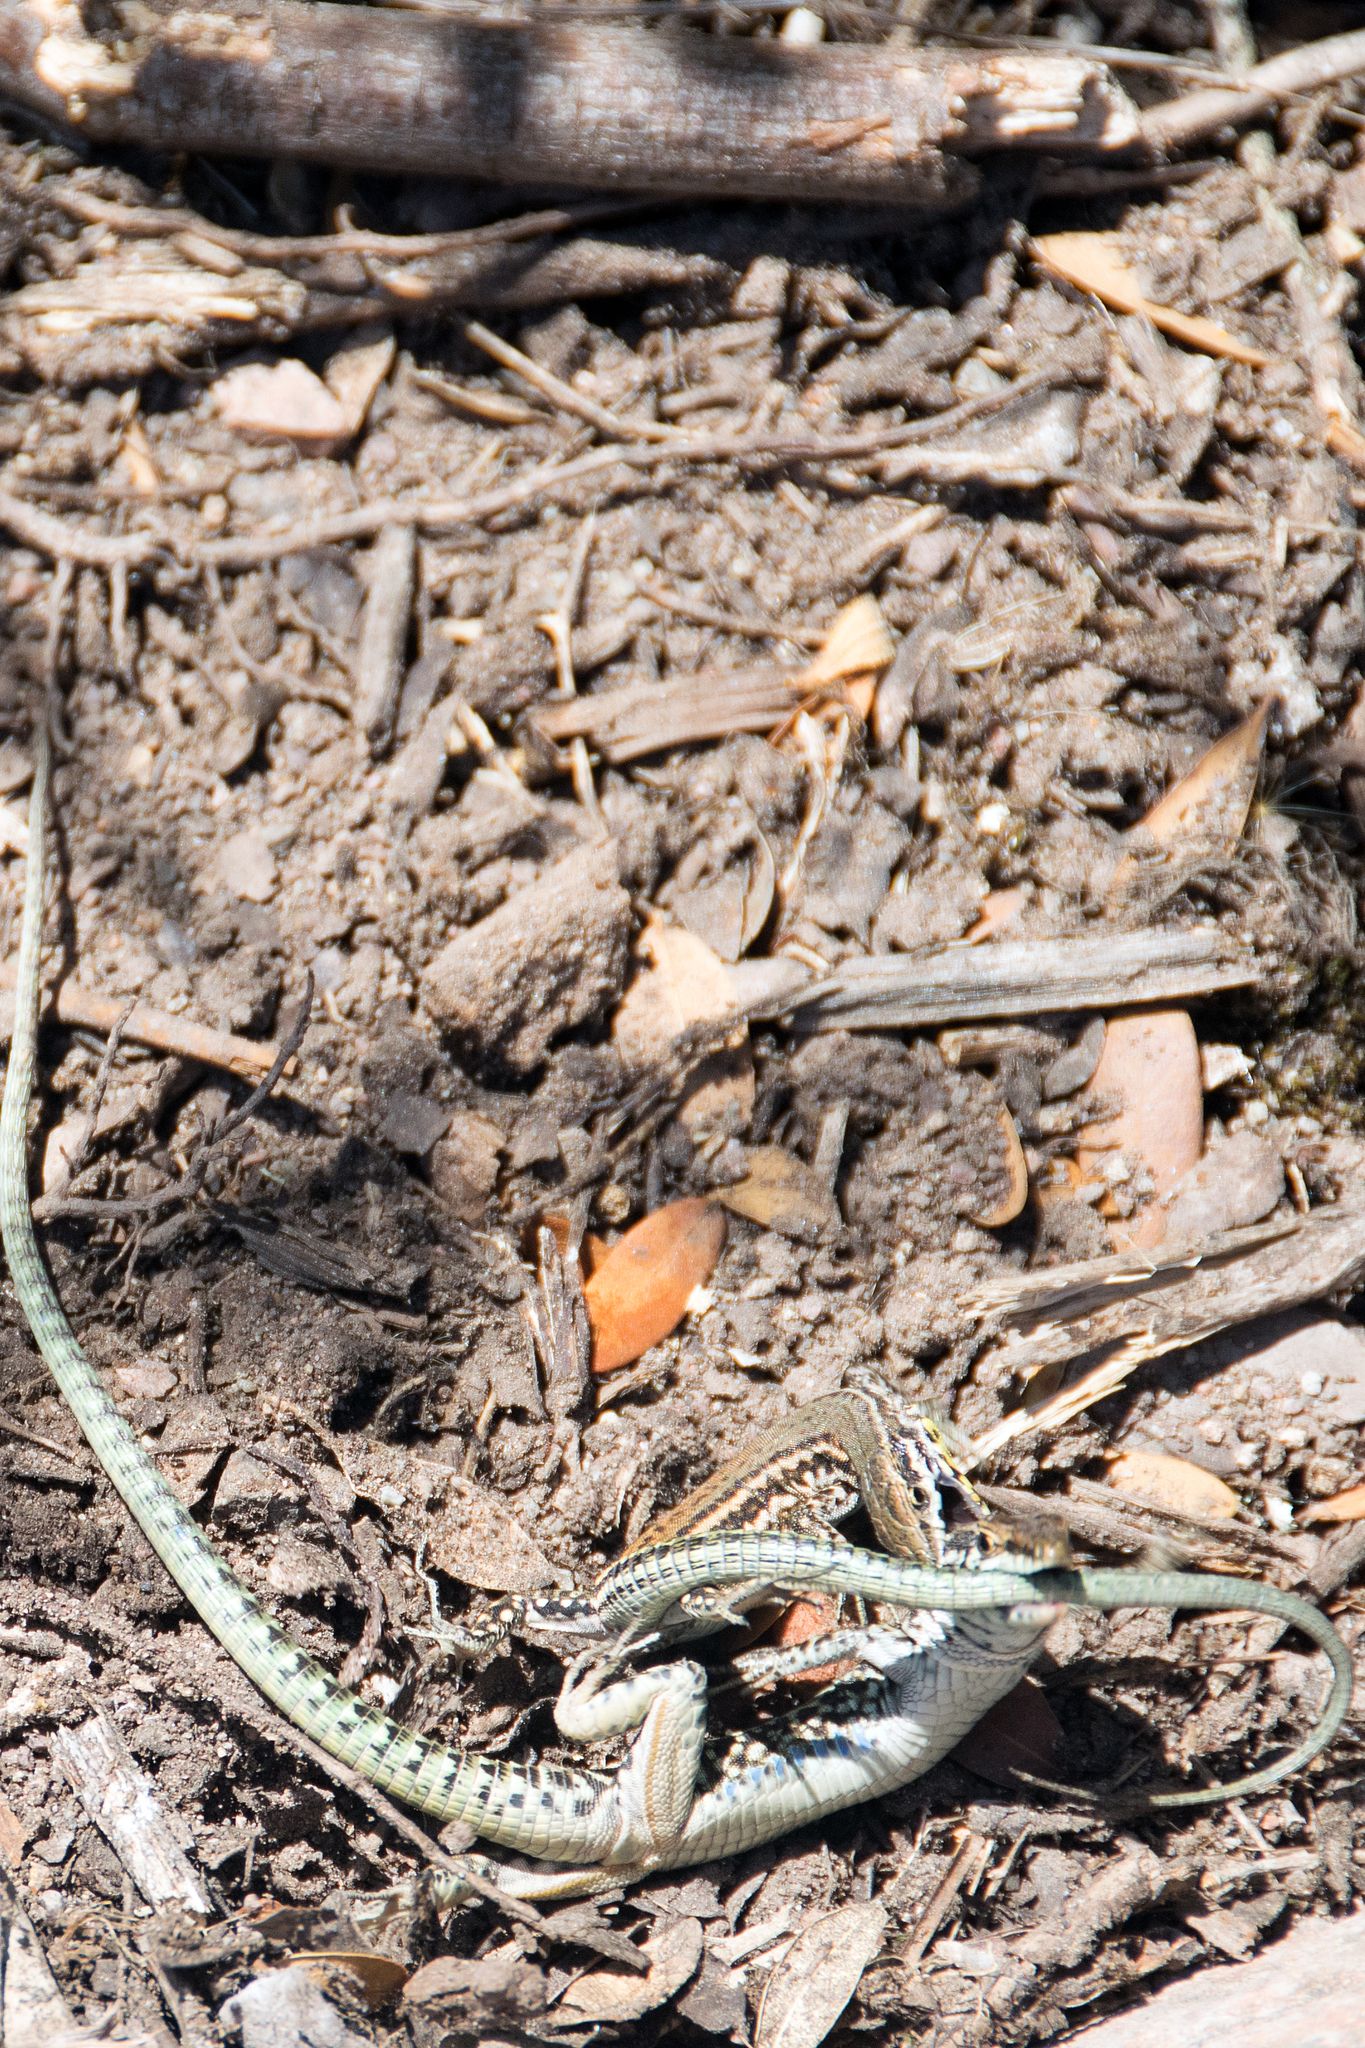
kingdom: Animalia
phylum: Chordata
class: Squamata
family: Lacertidae
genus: Podarcis
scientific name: Podarcis tiliguerta
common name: Tyrrhenian wall lizard
